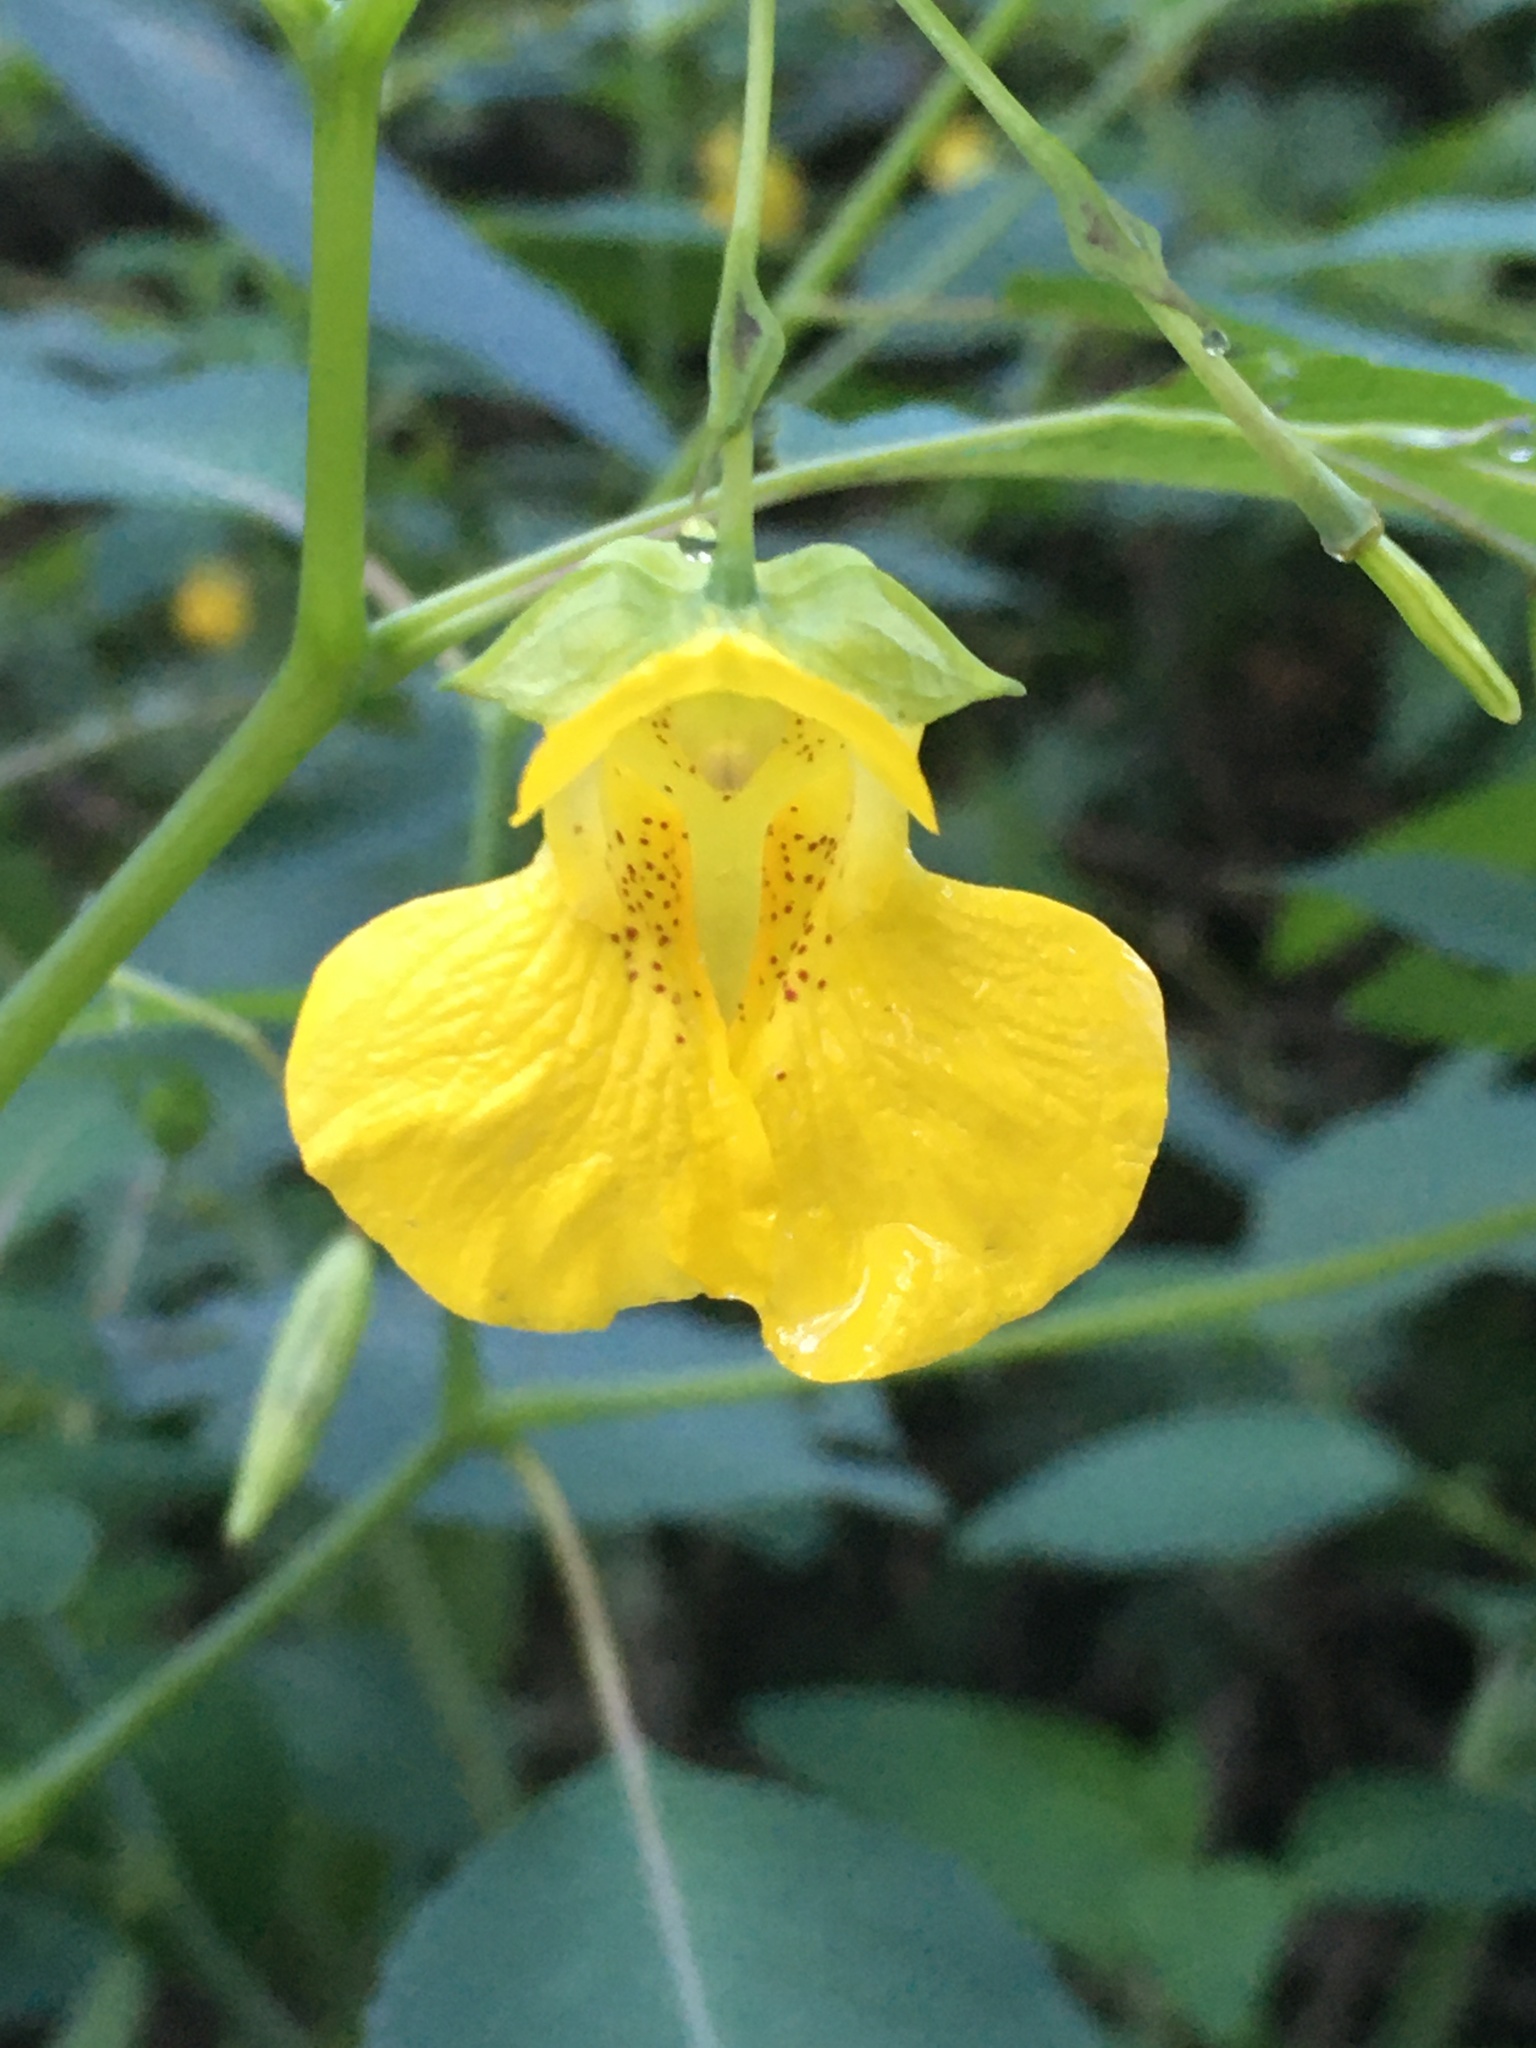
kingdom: Plantae
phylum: Tracheophyta
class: Magnoliopsida
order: Ericales
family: Balsaminaceae
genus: Impatiens
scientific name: Impatiens pallida
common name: Pale snapweed
